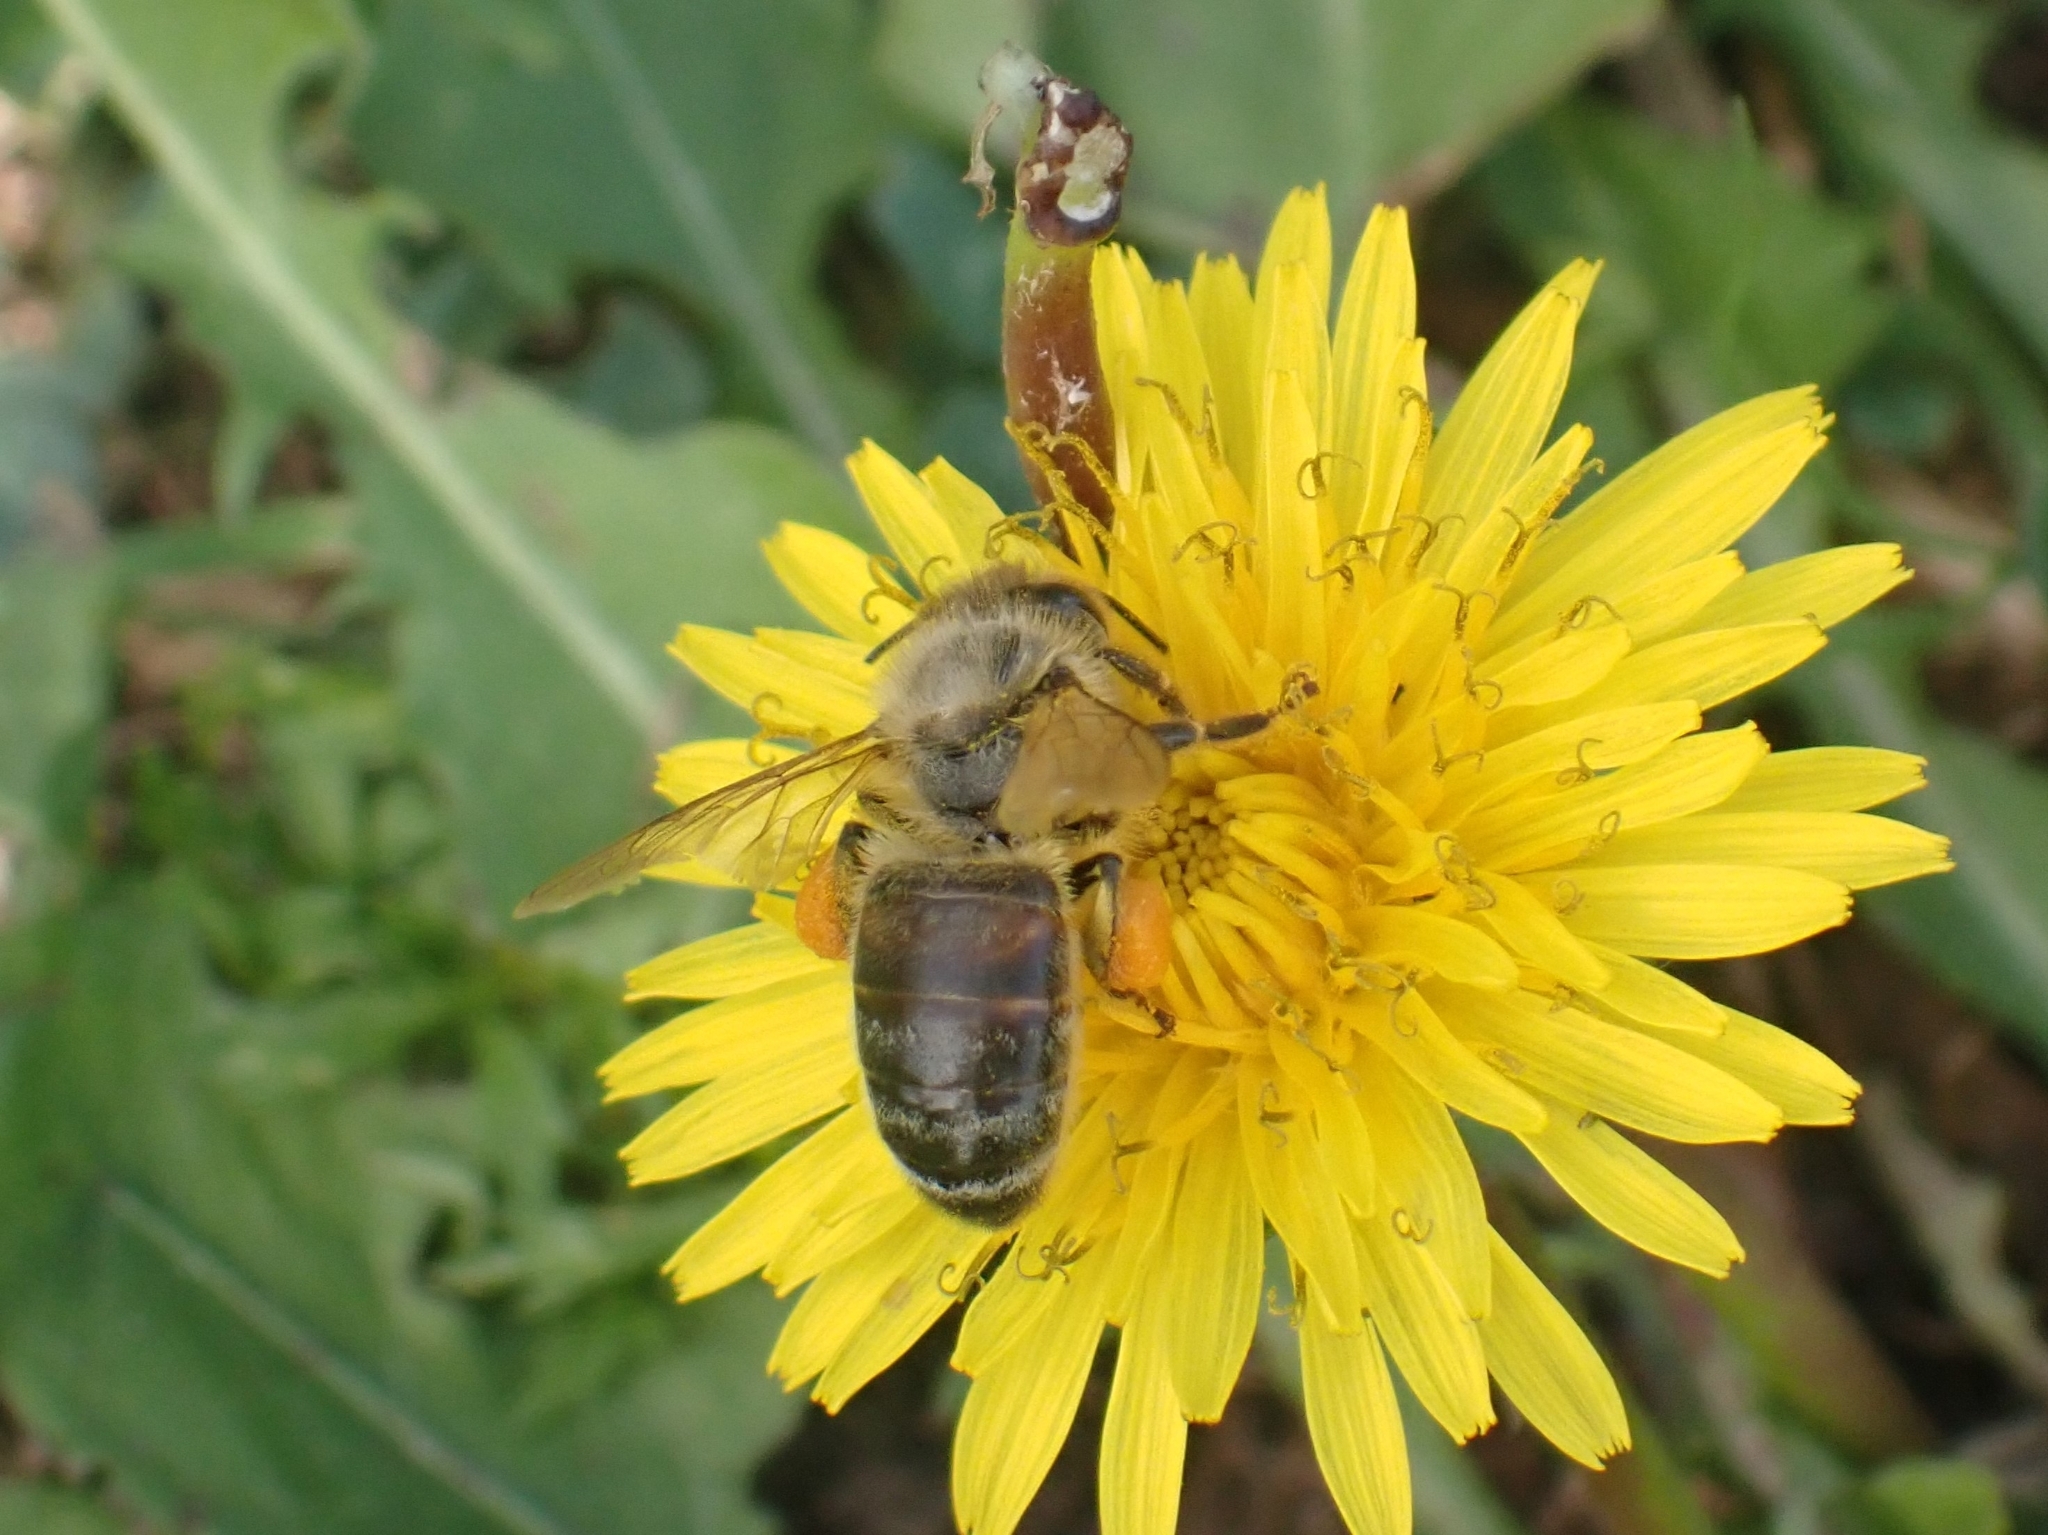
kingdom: Animalia
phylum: Arthropoda
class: Insecta
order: Hymenoptera
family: Apidae
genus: Apis
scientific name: Apis mellifera
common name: Honey bee
